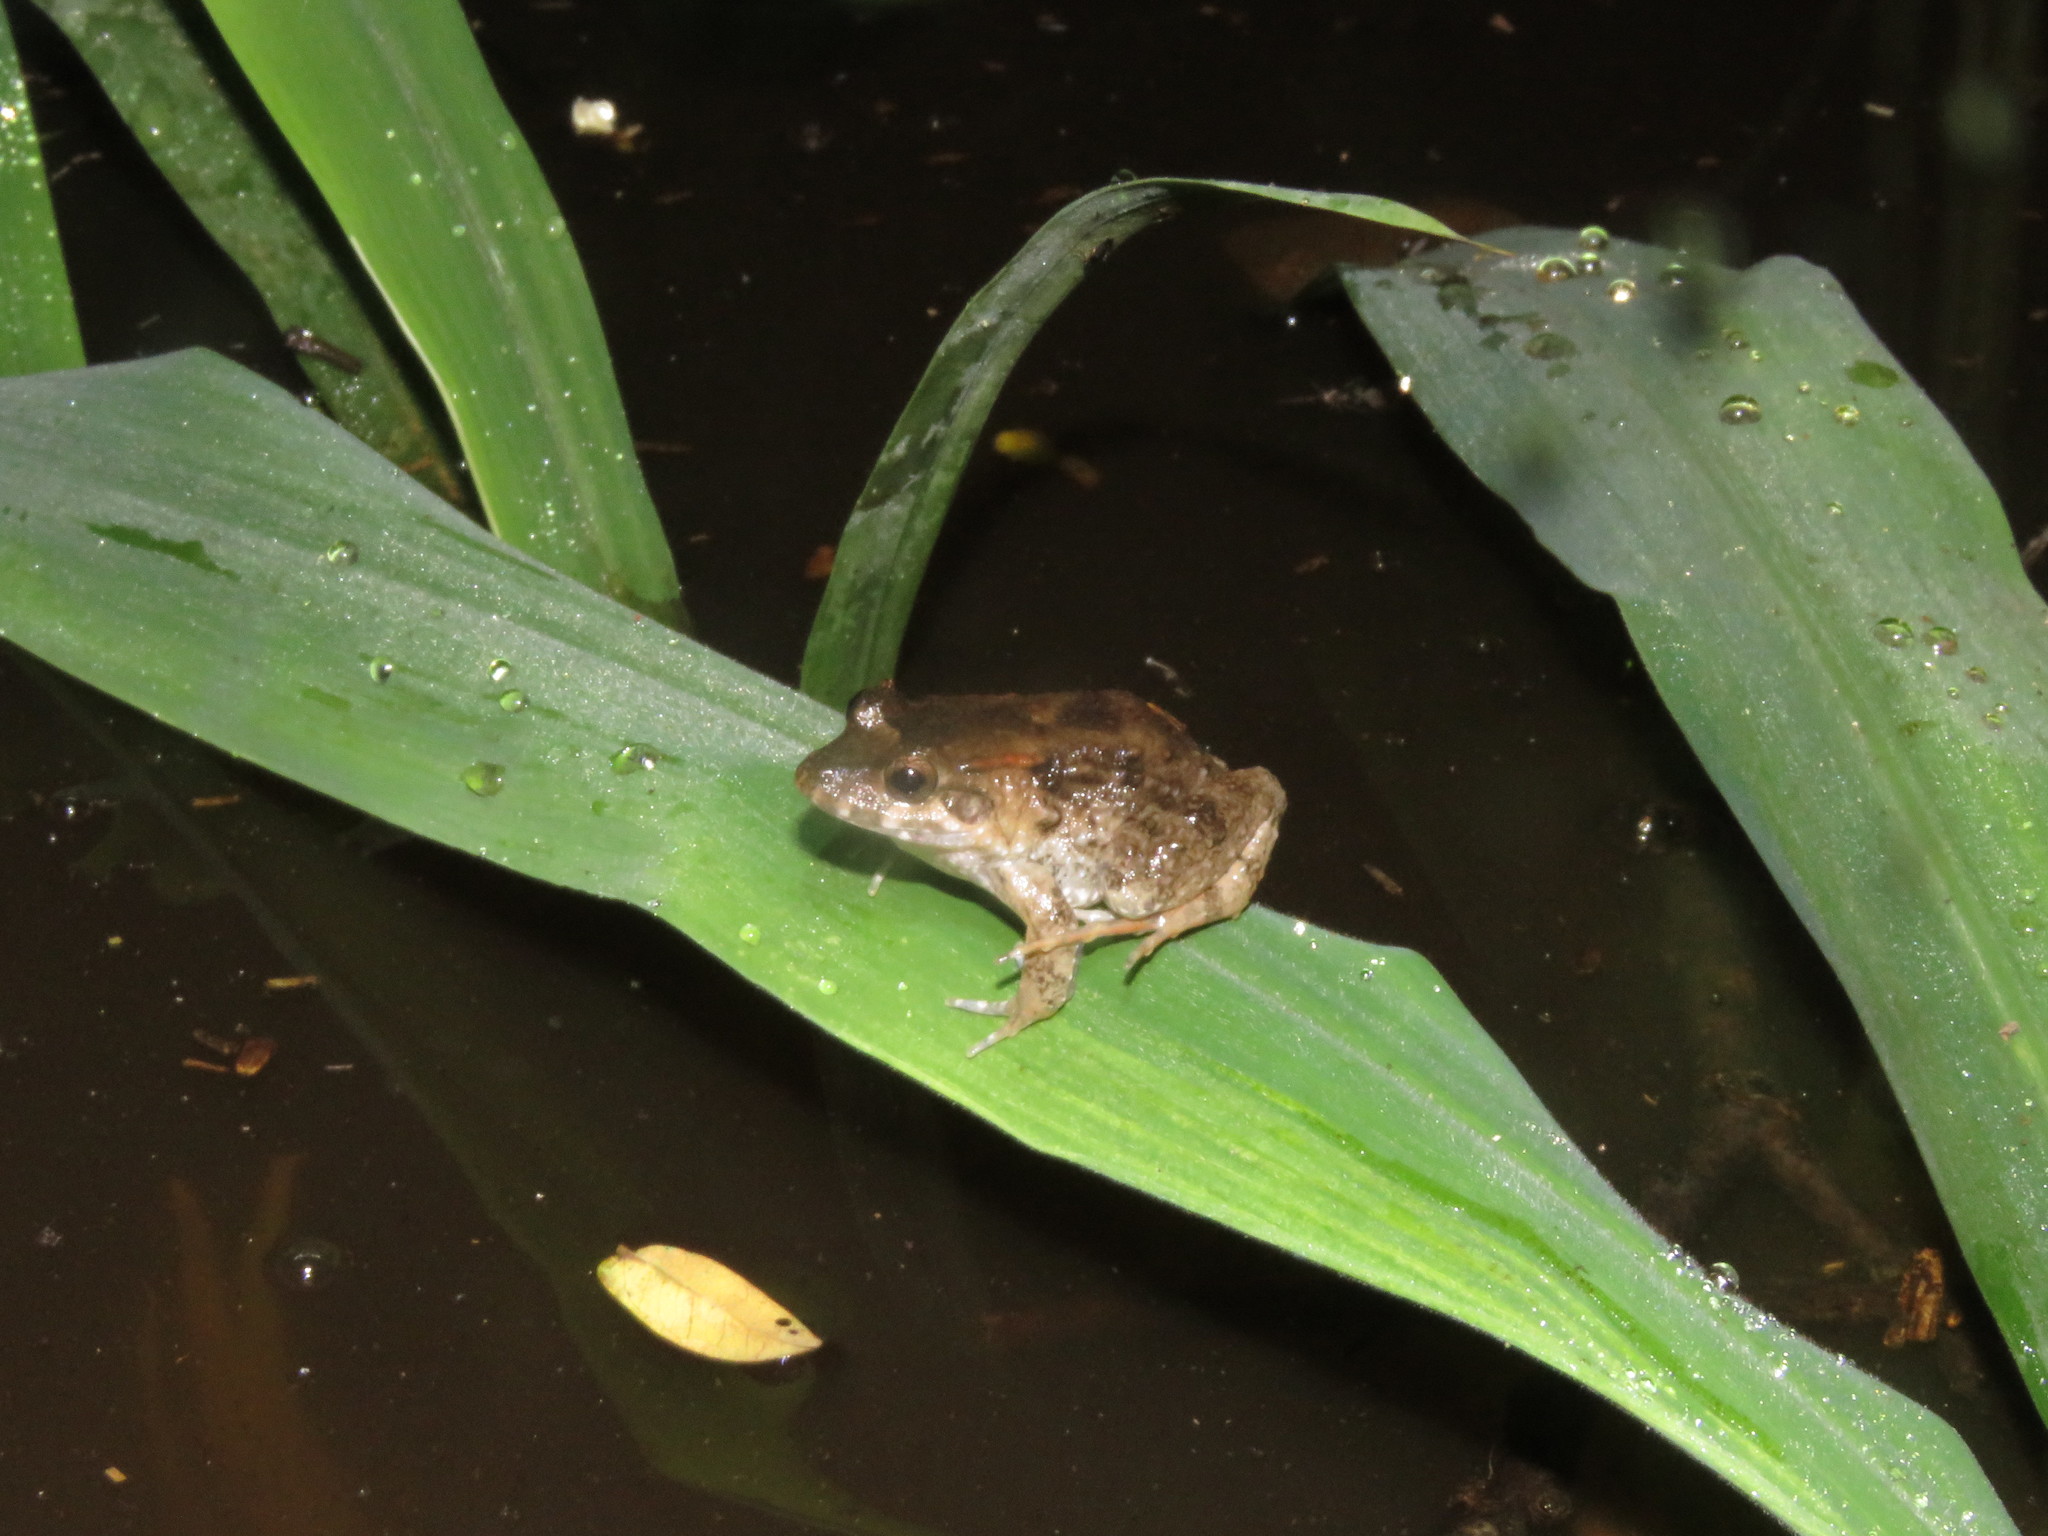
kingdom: Animalia
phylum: Chordata
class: Amphibia
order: Anura
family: Leptodactylidae
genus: Leptodactylus
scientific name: Leptodactylus griseigularis
